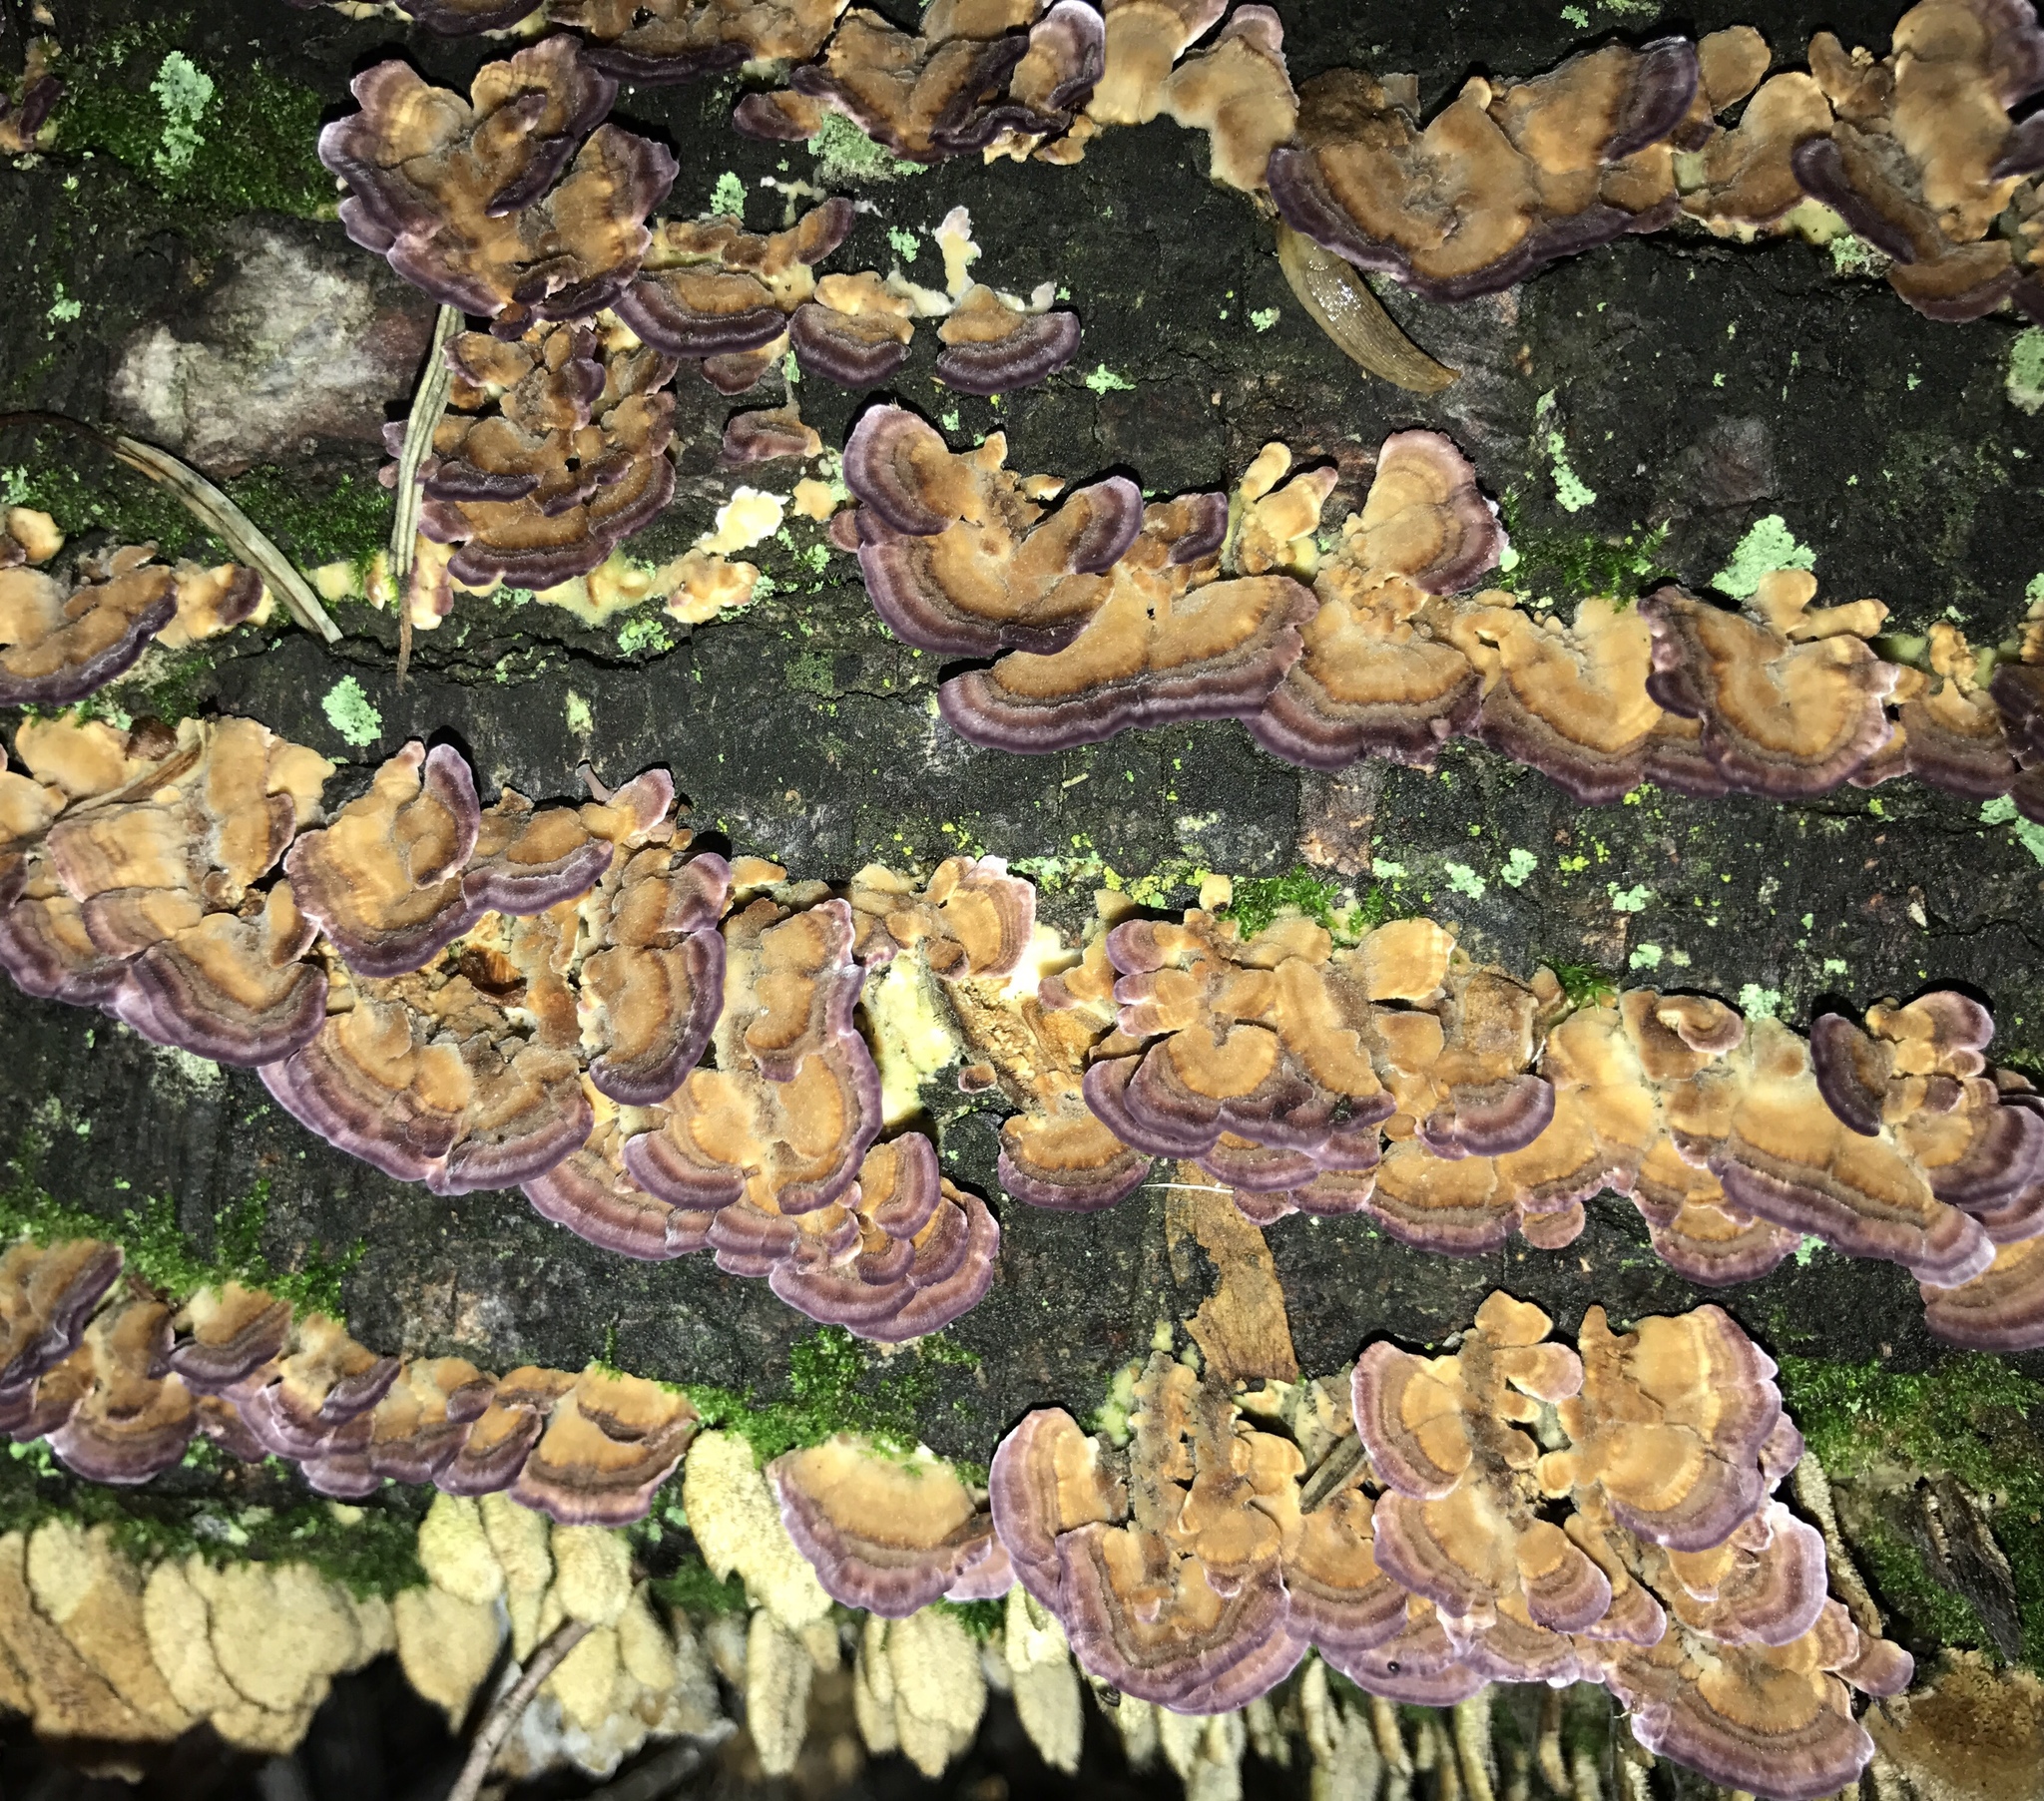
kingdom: Fungi
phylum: Basidiomycota
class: Agaricomycetes
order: Hymenochaetales
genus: Trichaptum
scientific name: Trichaptum biforme
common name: Violet-toothed polypore
